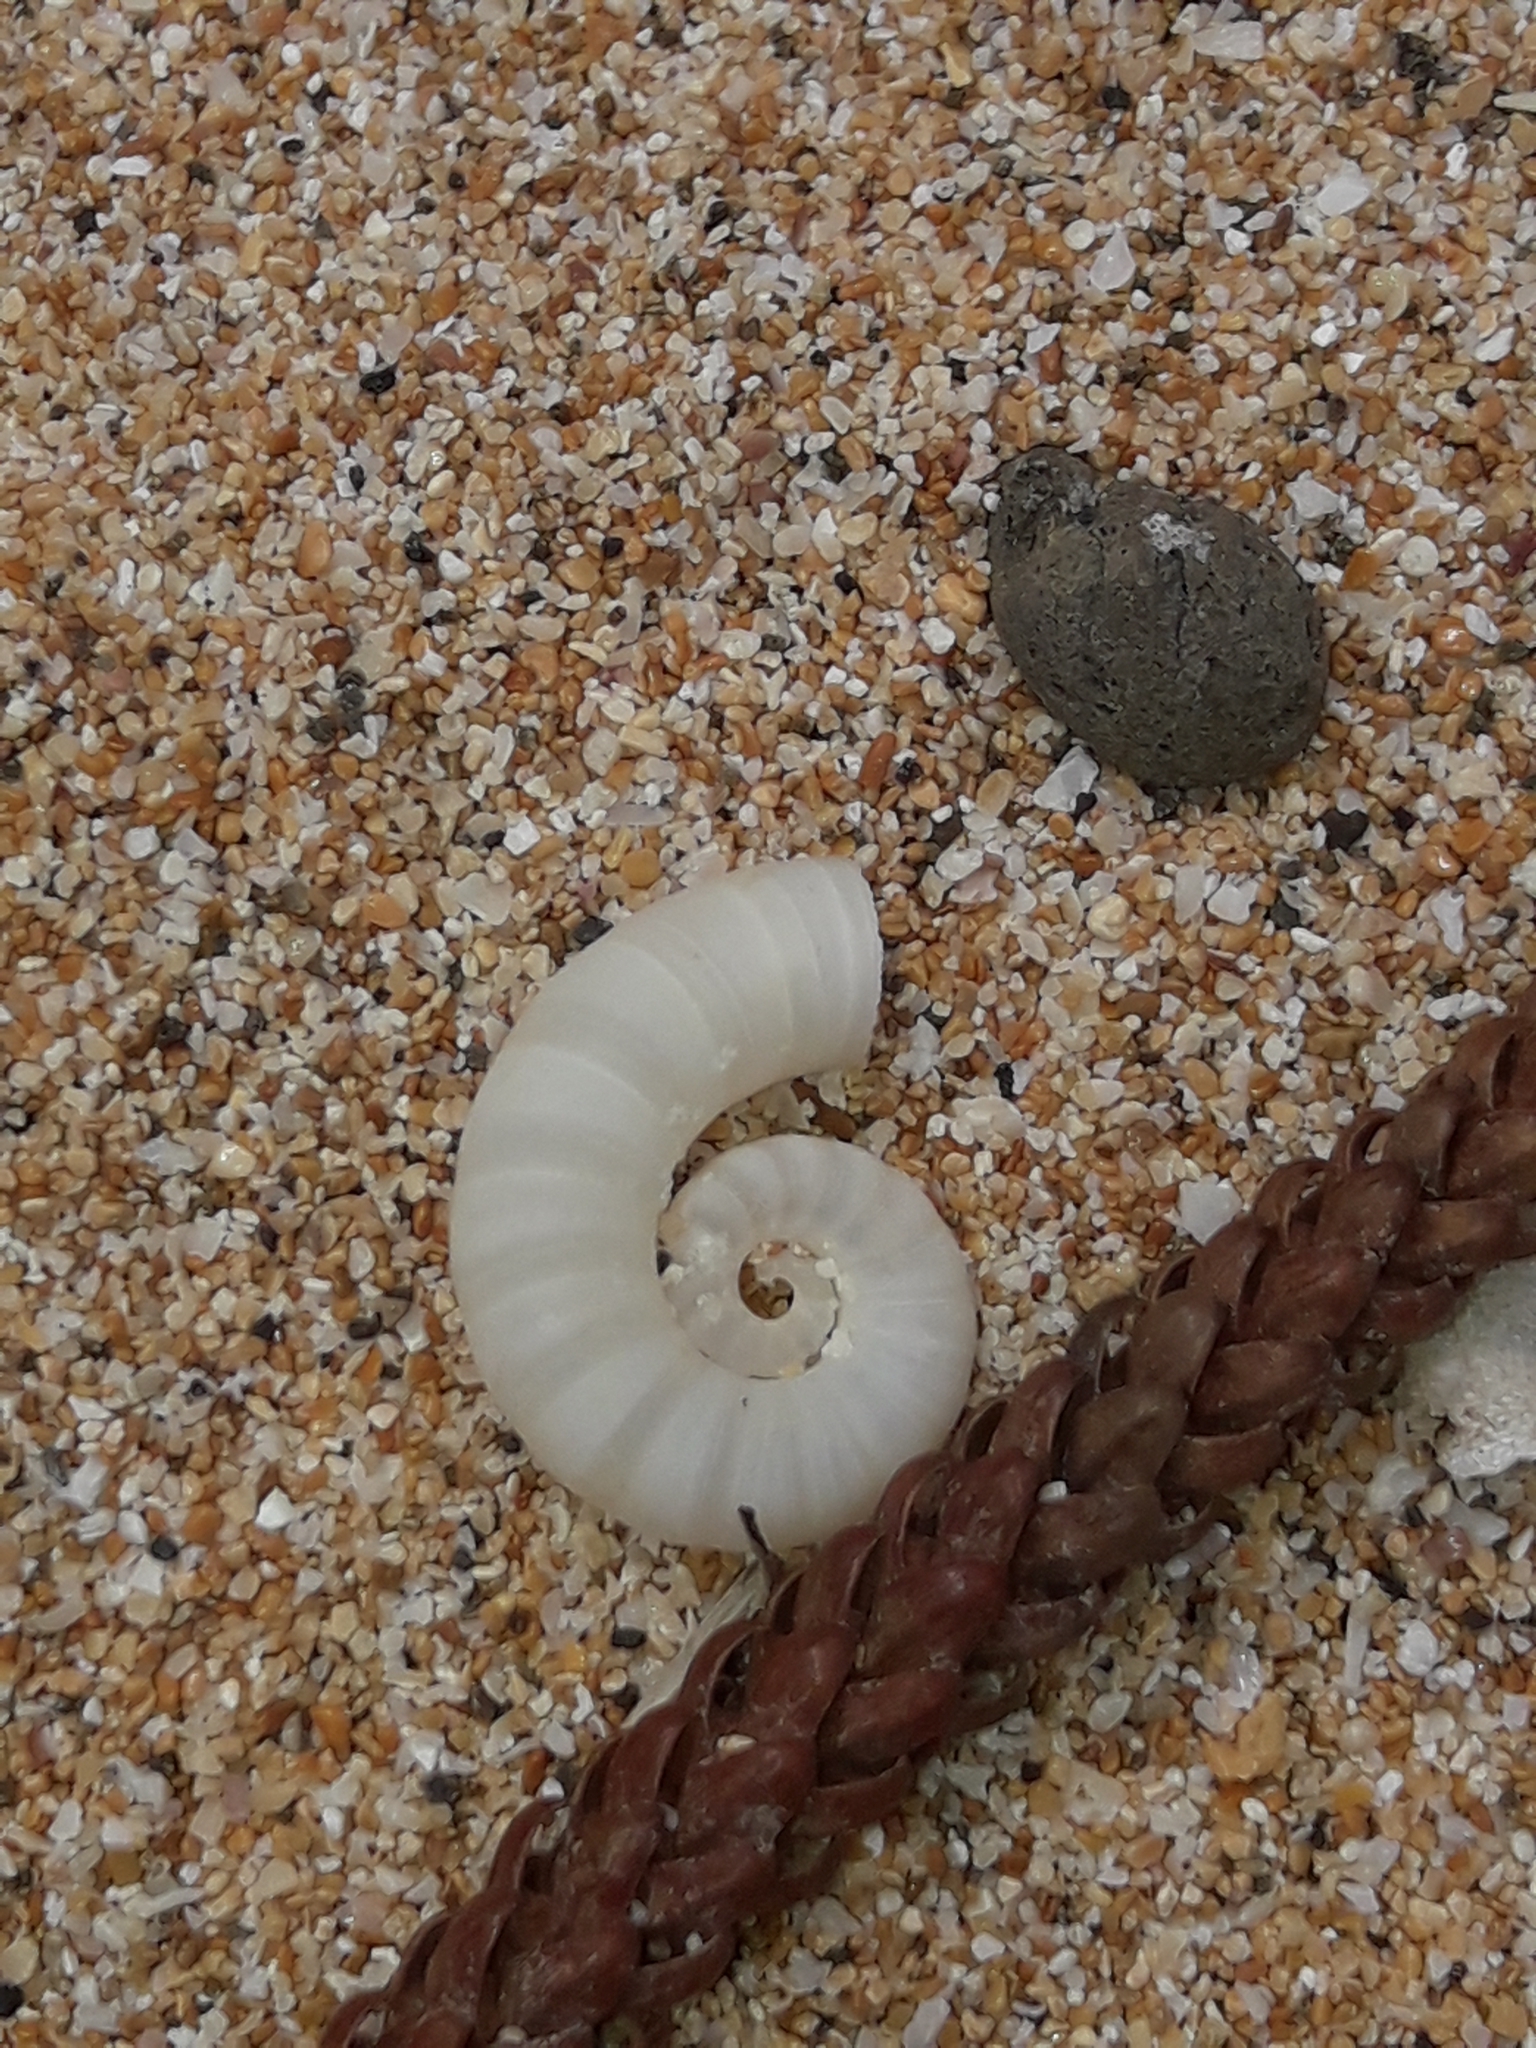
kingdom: Animalia
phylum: Mollusca
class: Cephalopoda
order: Spirulida
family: Spirulidae
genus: Spirula
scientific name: Spirula spirula
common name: Ram's horn squid
